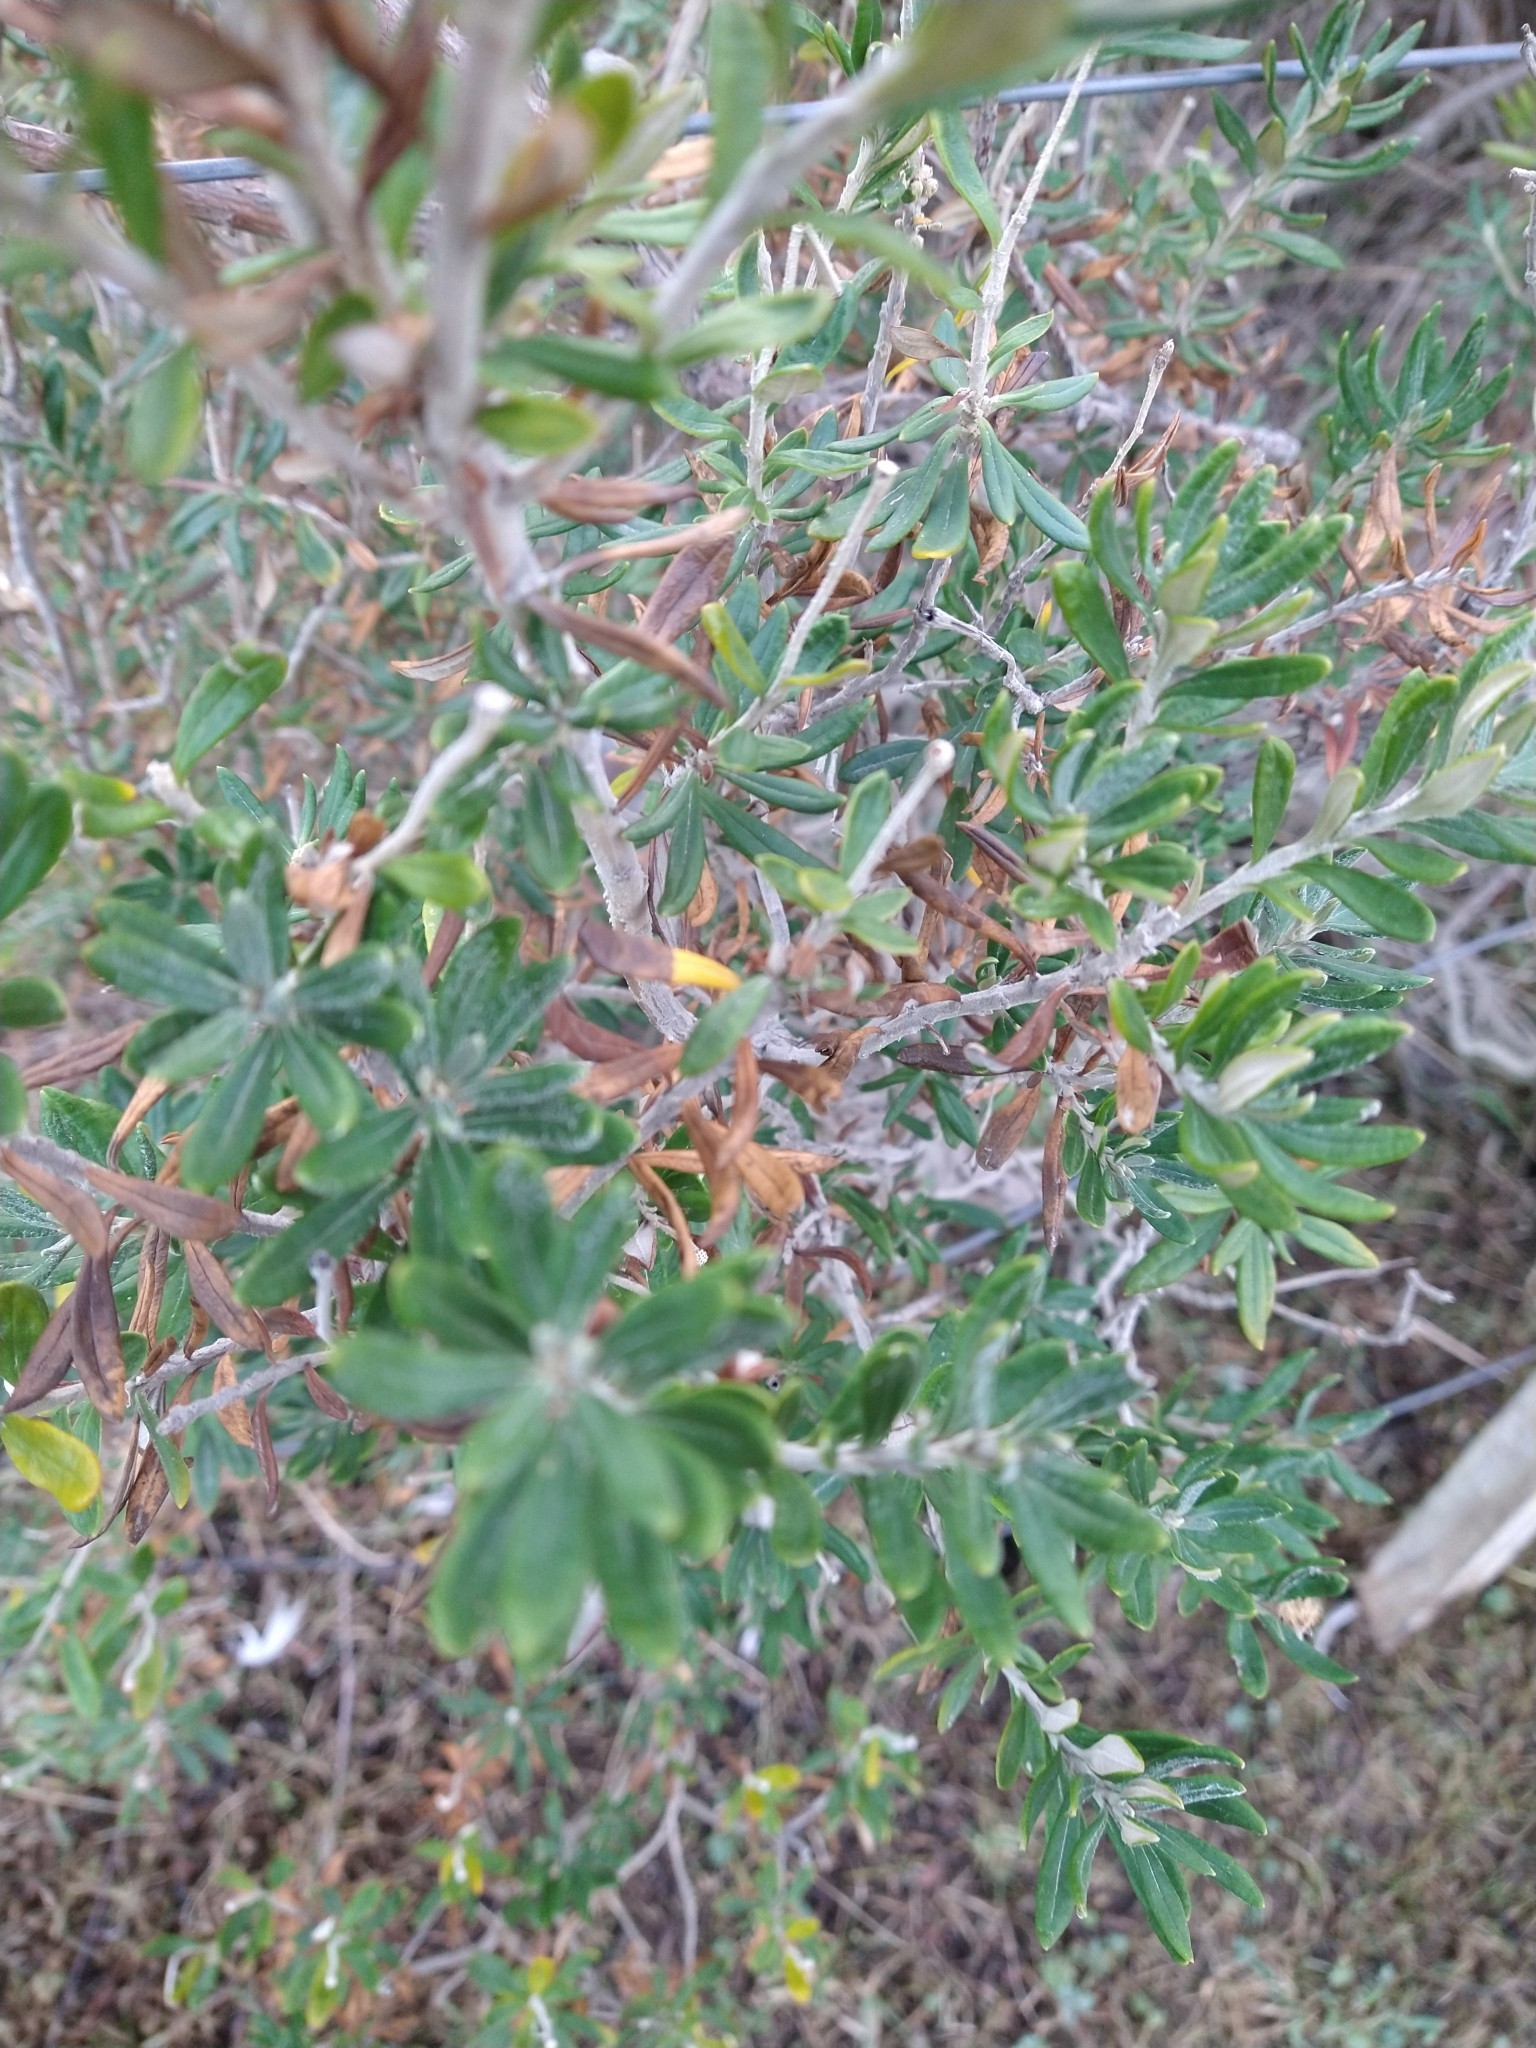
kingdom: Plantae
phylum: Tracheophyta
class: Magnoliopsida
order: Asterales
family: Asteraceae
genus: Chiliotrichum
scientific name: Chiliotrichum diffusum
